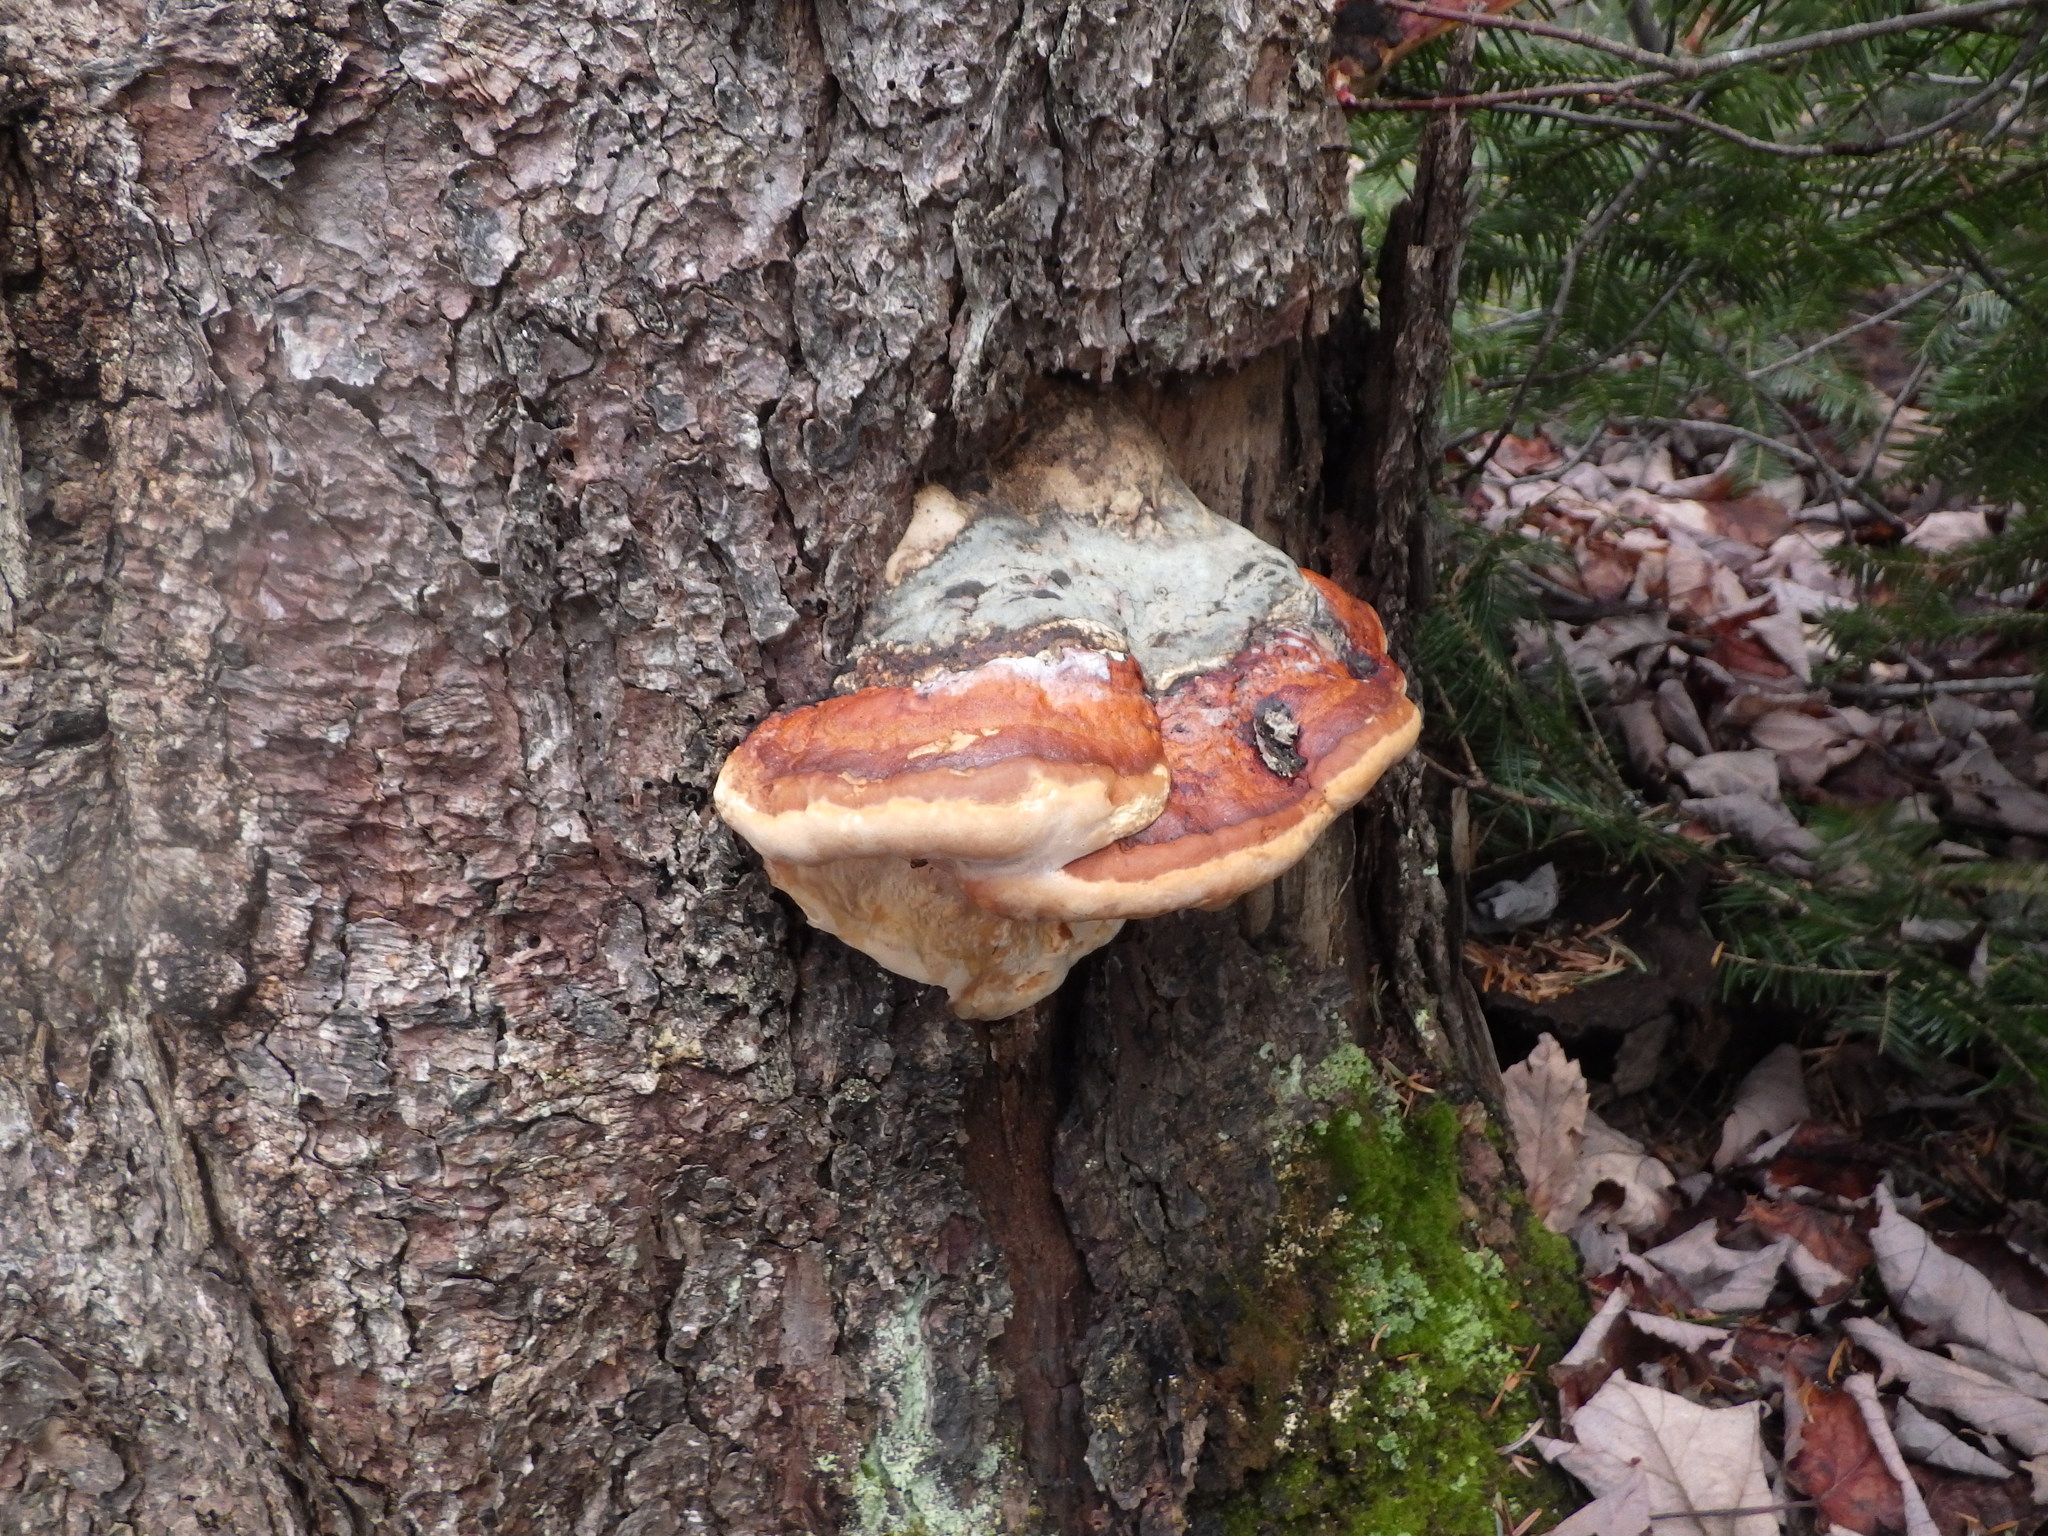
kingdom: Fungi
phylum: Basidiomycota
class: Agaricomycetes
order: Polyporales
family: Fomitopsidaceae
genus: Fomitopsis
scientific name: Fomitopsis mounceae
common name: Northern red belt
